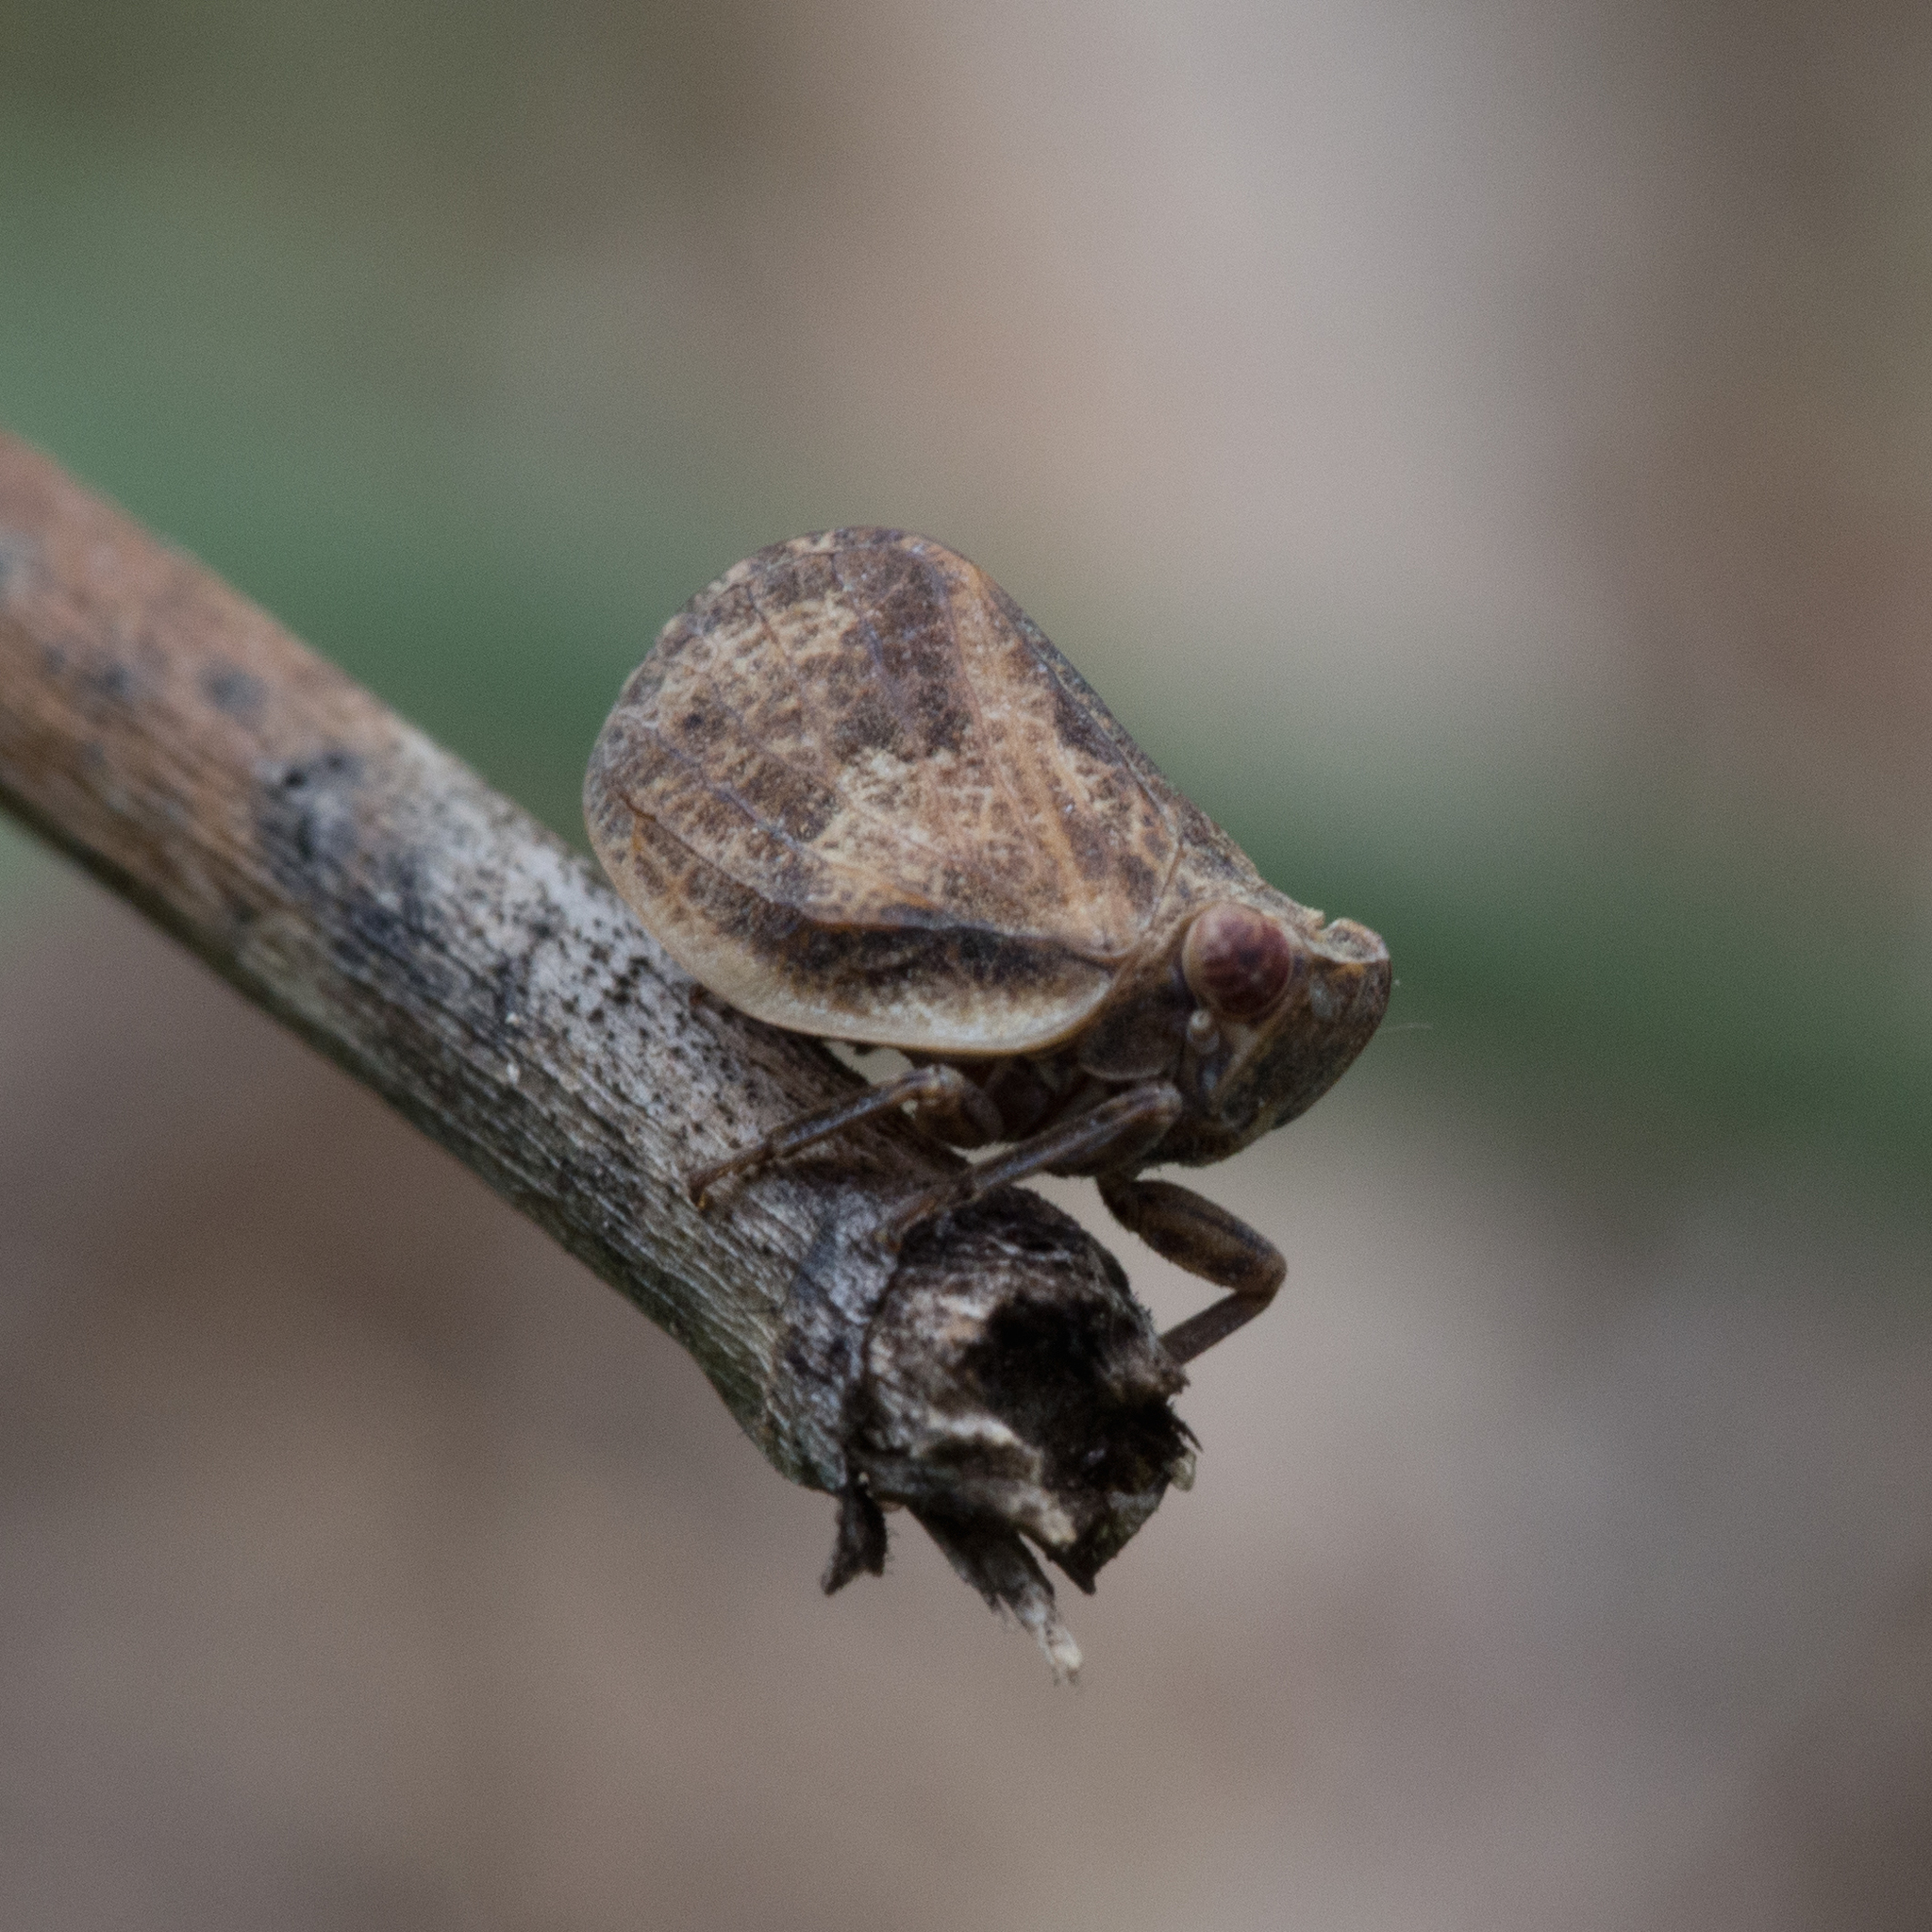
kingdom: Animalia
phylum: Arthropoda
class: Insecta
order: Hemiptera
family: Issidae
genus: Agalmatium
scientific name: Agalmatium flavescens
